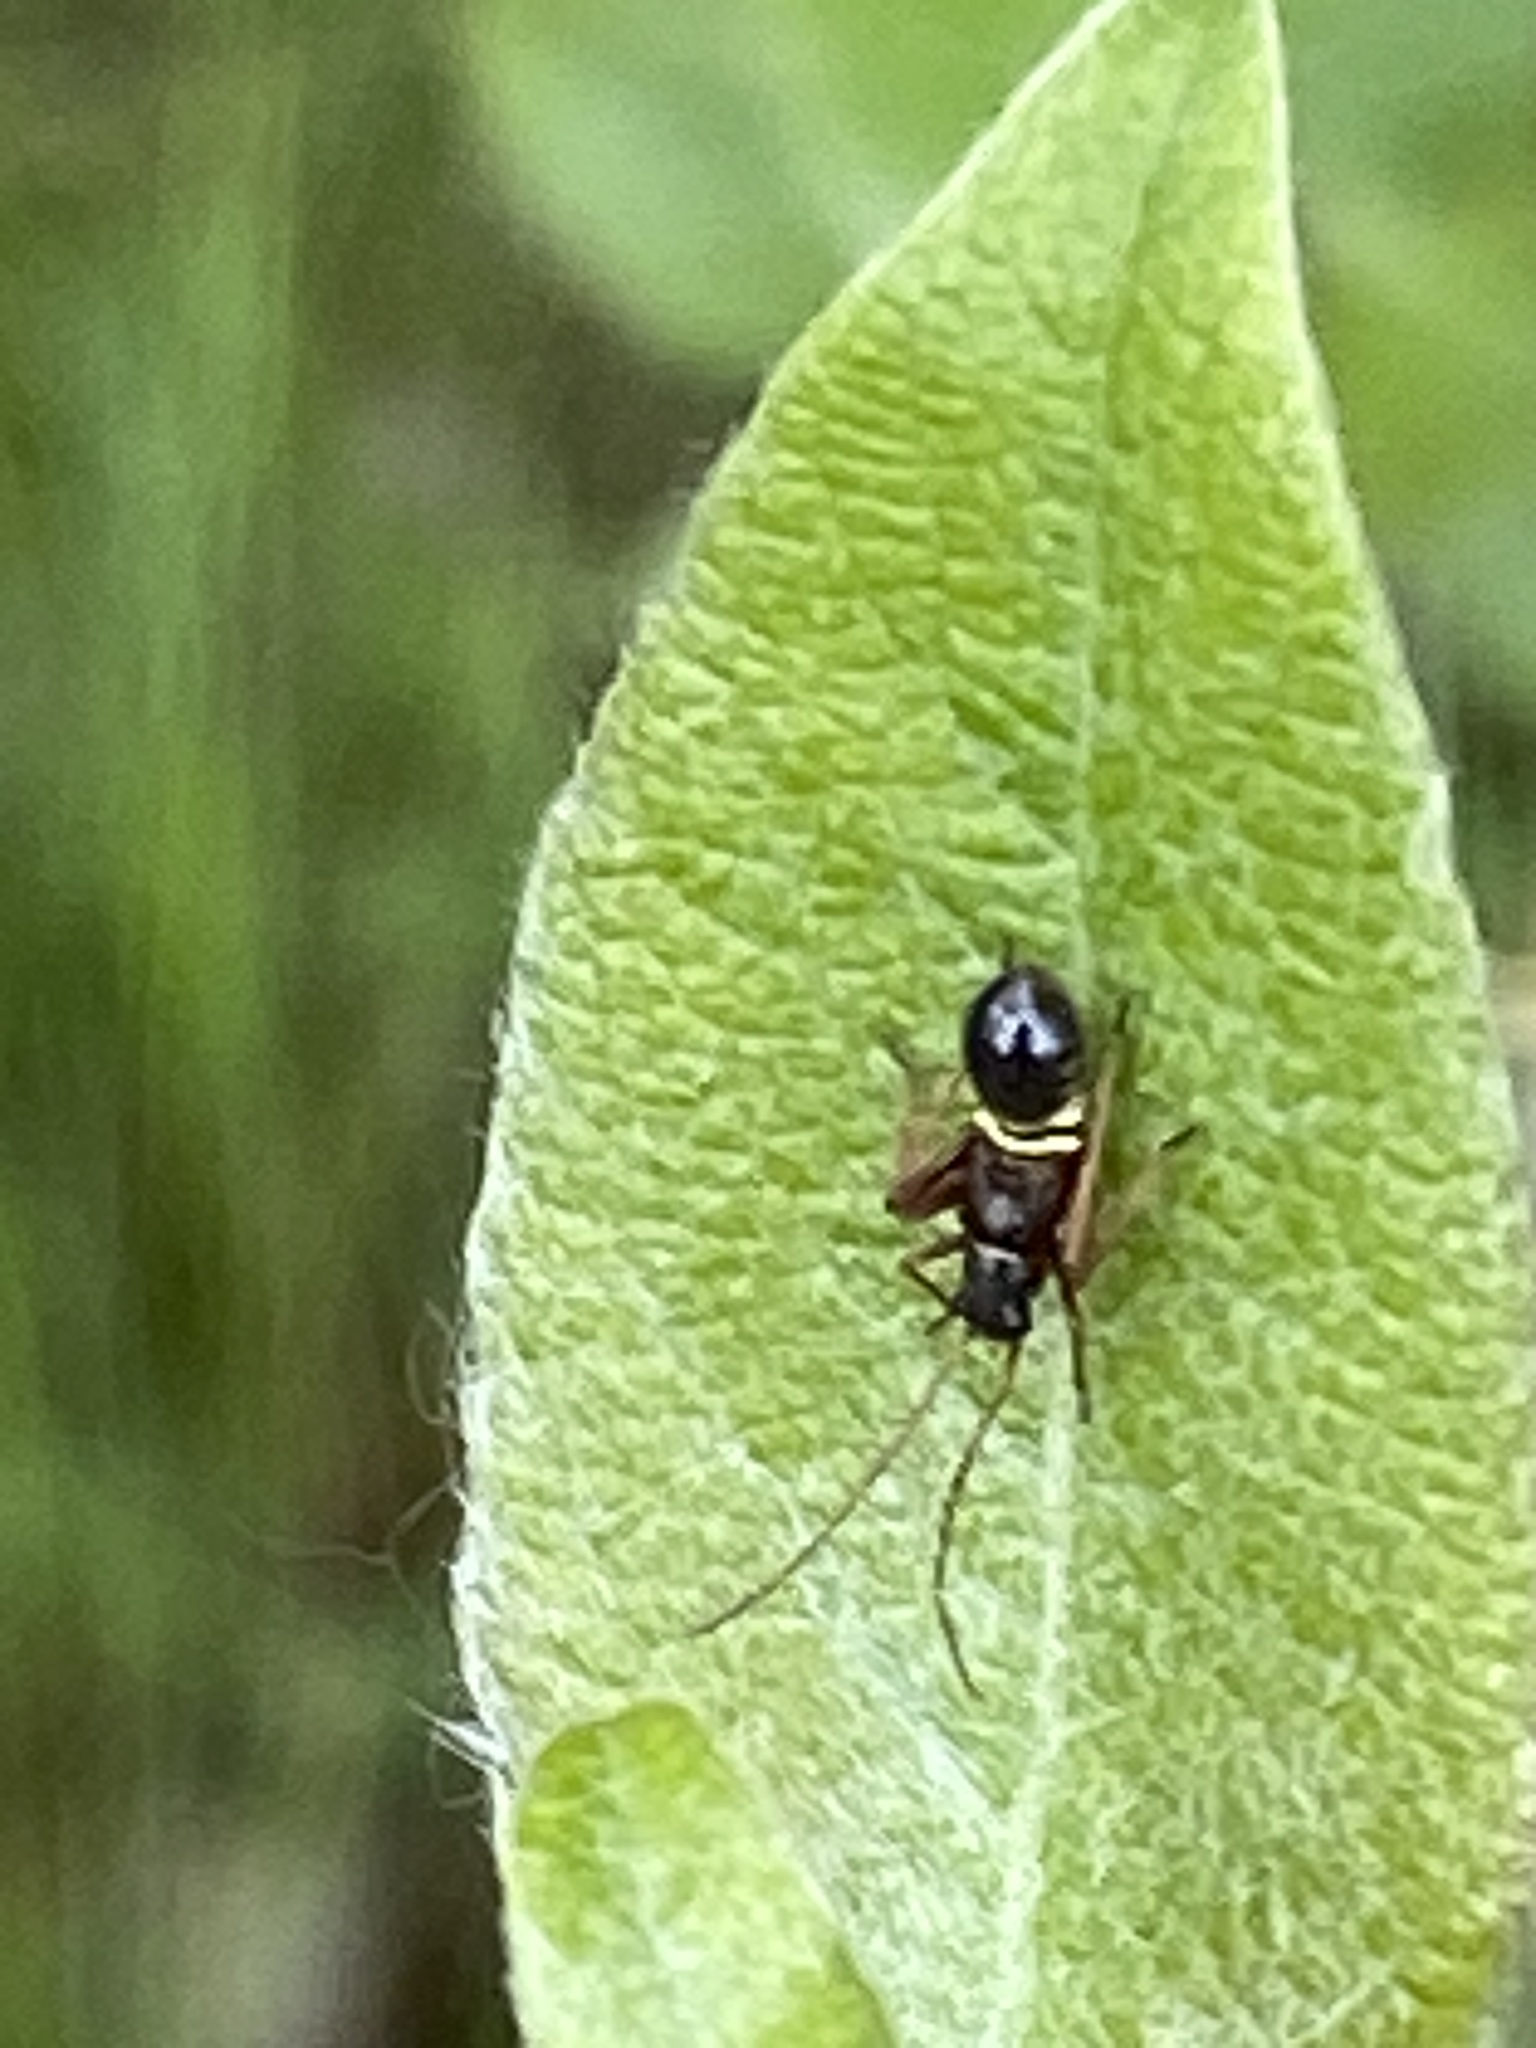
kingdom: Animalia
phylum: Arthropoda
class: Insecta
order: Hemiptera
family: Miridae
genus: Miris
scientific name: Miris striatus
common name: Fine streaked bugkin
